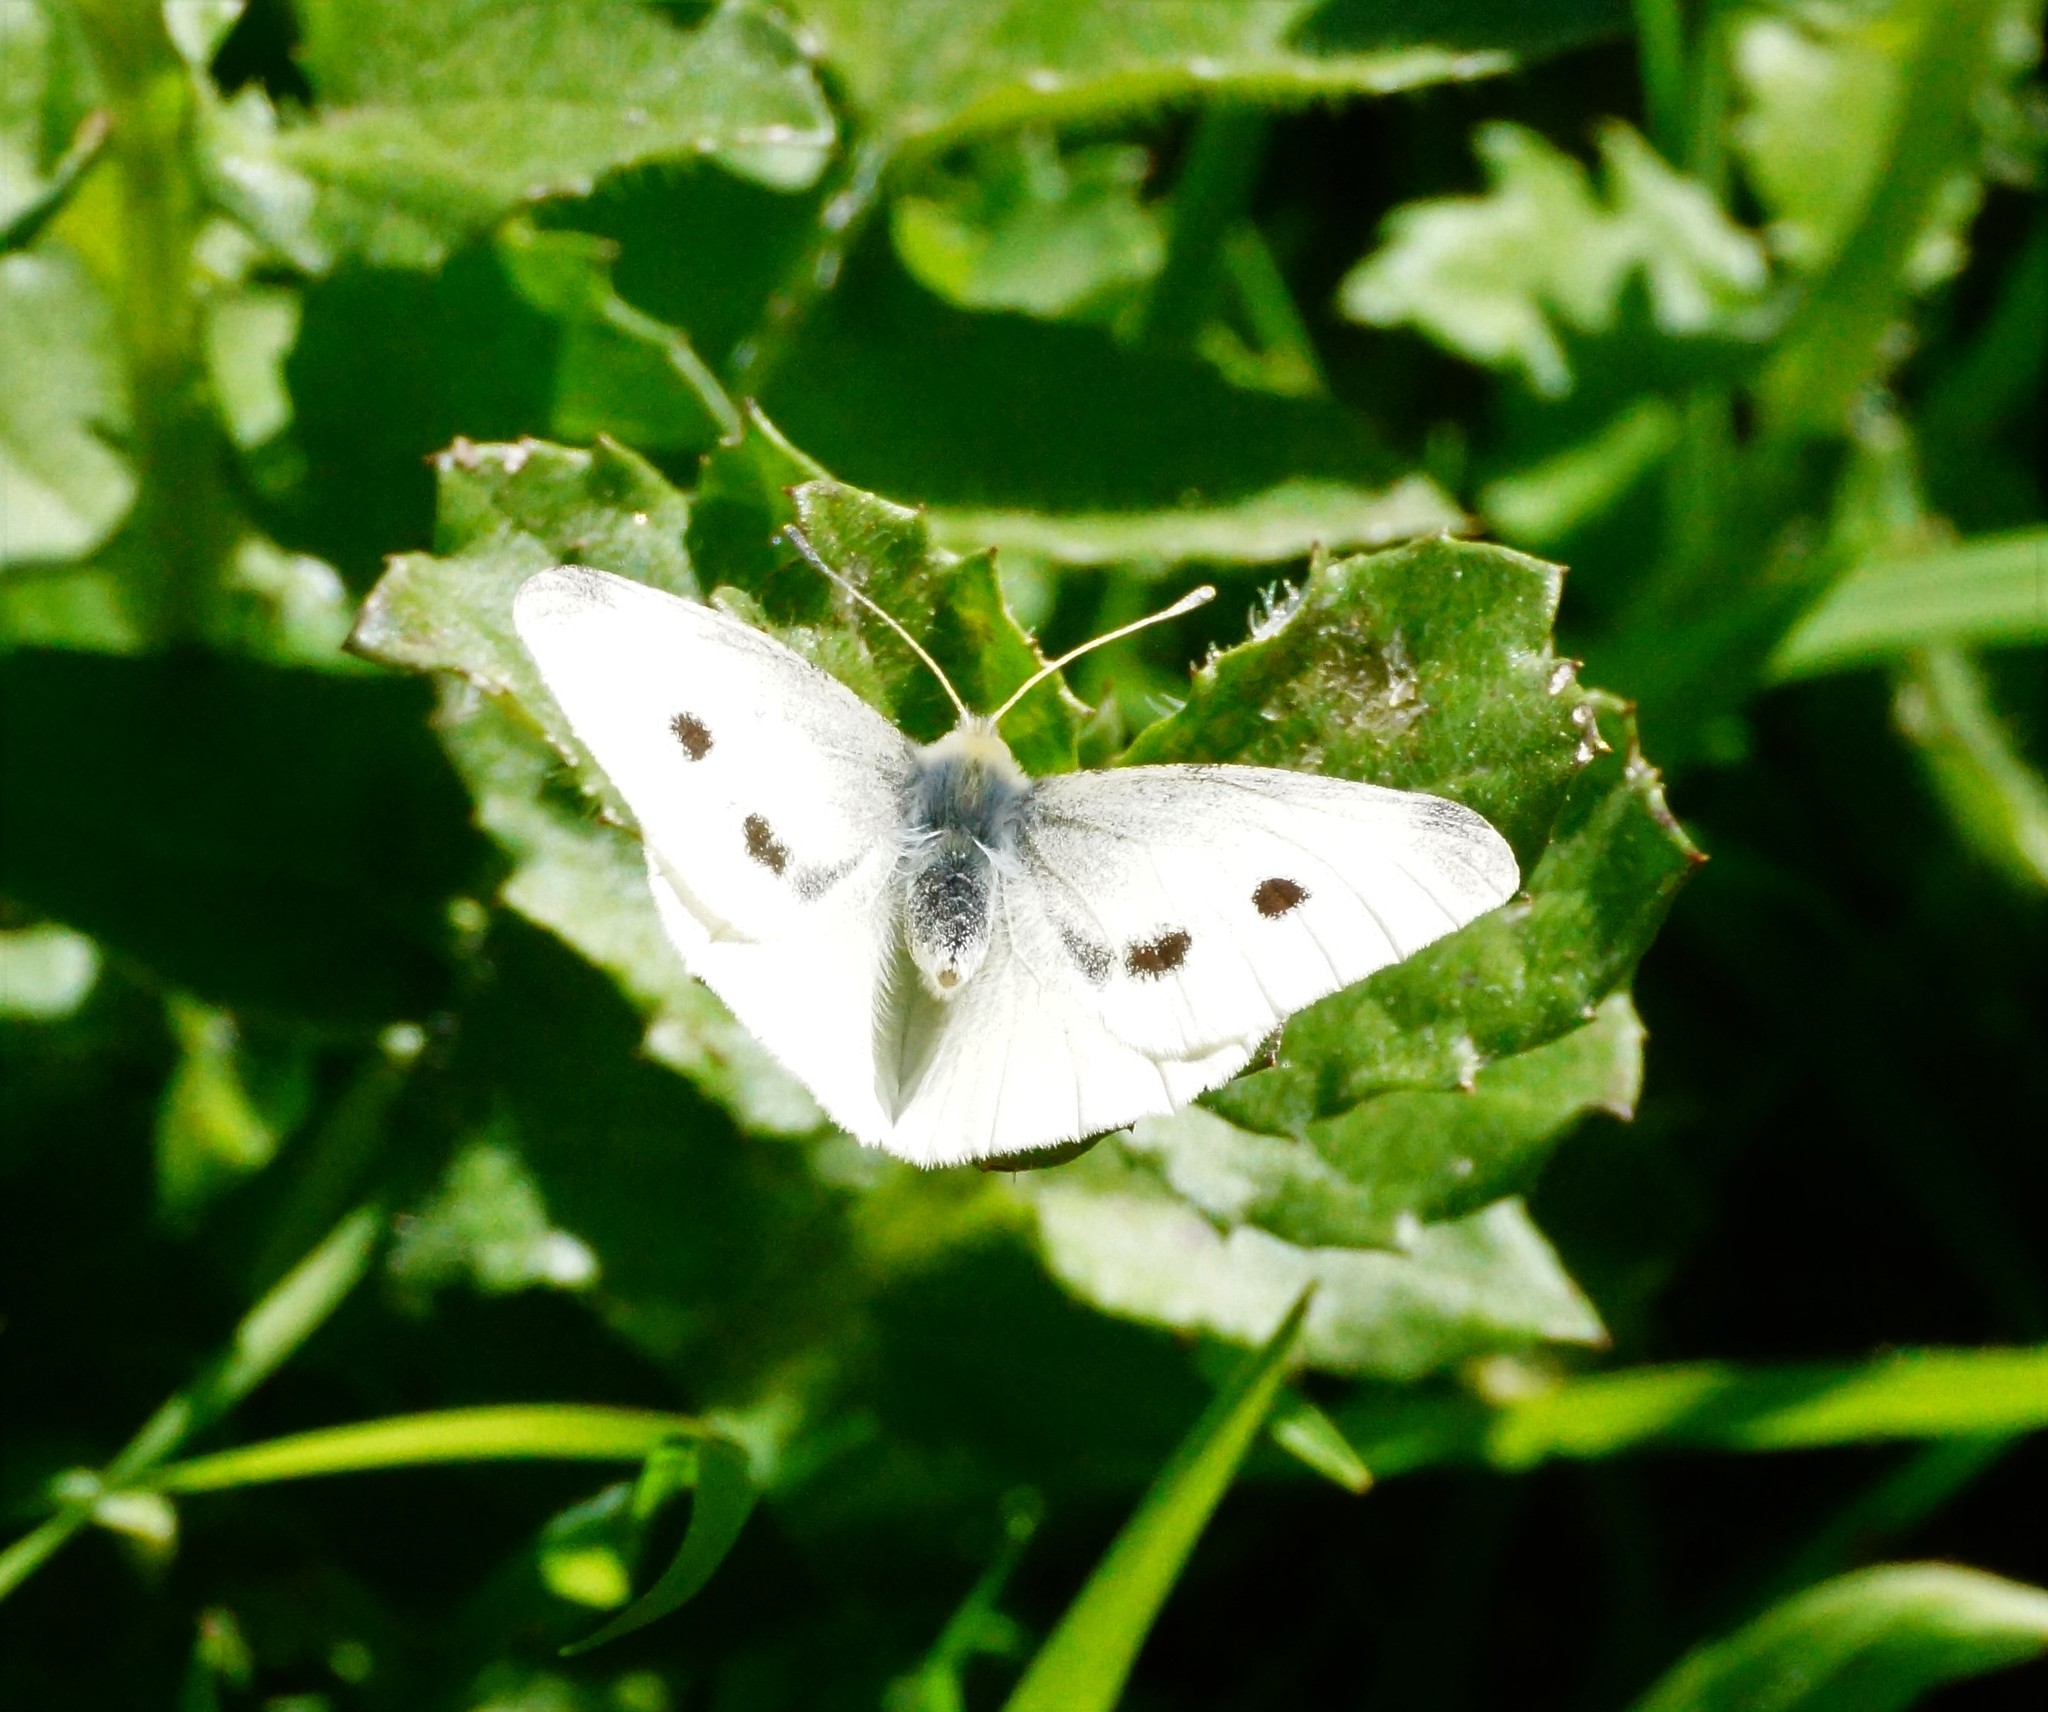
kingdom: Animalia
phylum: Arthropoda
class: Insecta
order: Lepidoptera
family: Pieridae
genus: Pieris
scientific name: Pieris rapae
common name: Small white
